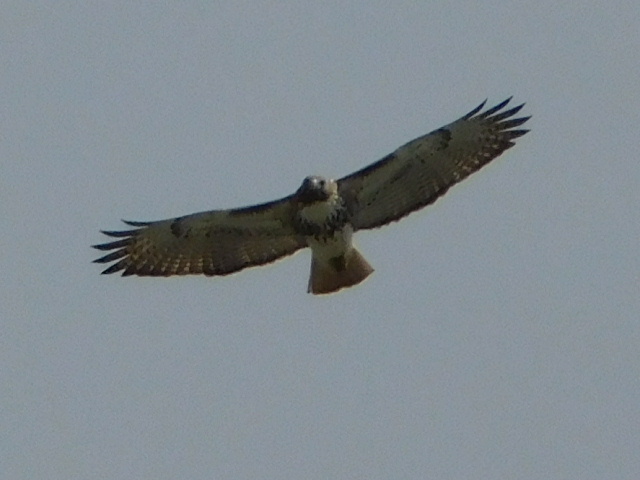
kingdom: Animalia
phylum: Chordata
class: Aves
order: Accipitriformes
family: Accipitridae
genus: Buteo
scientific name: Buteo jamaicensis
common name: Red-tailed hawk
